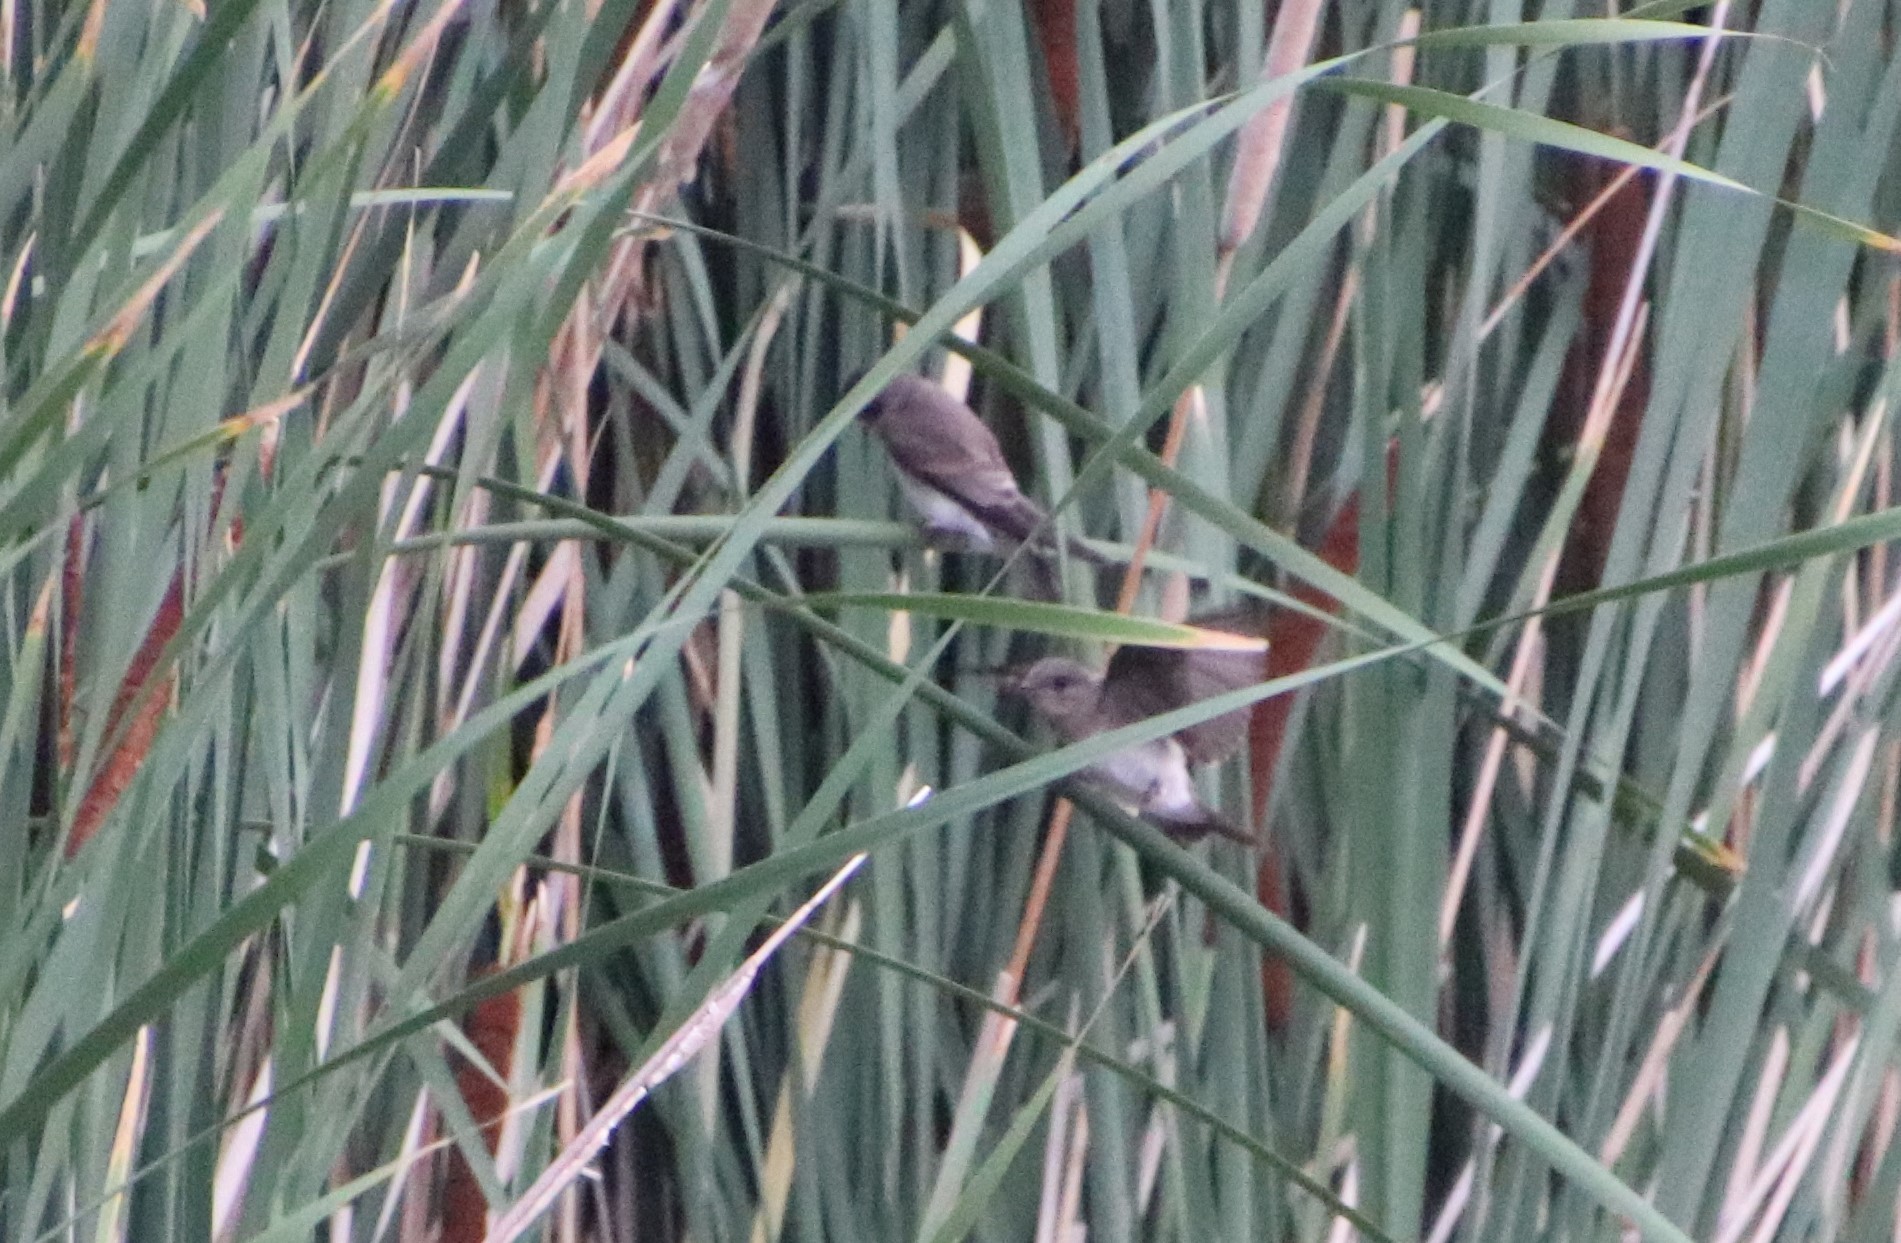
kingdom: Animalia
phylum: Chordata
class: Aves
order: Passeriformes
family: Hirundinidae
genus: Stelgidopteryx
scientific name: Stelgidopteryx serripennis
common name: Northern rough-winged swallow
